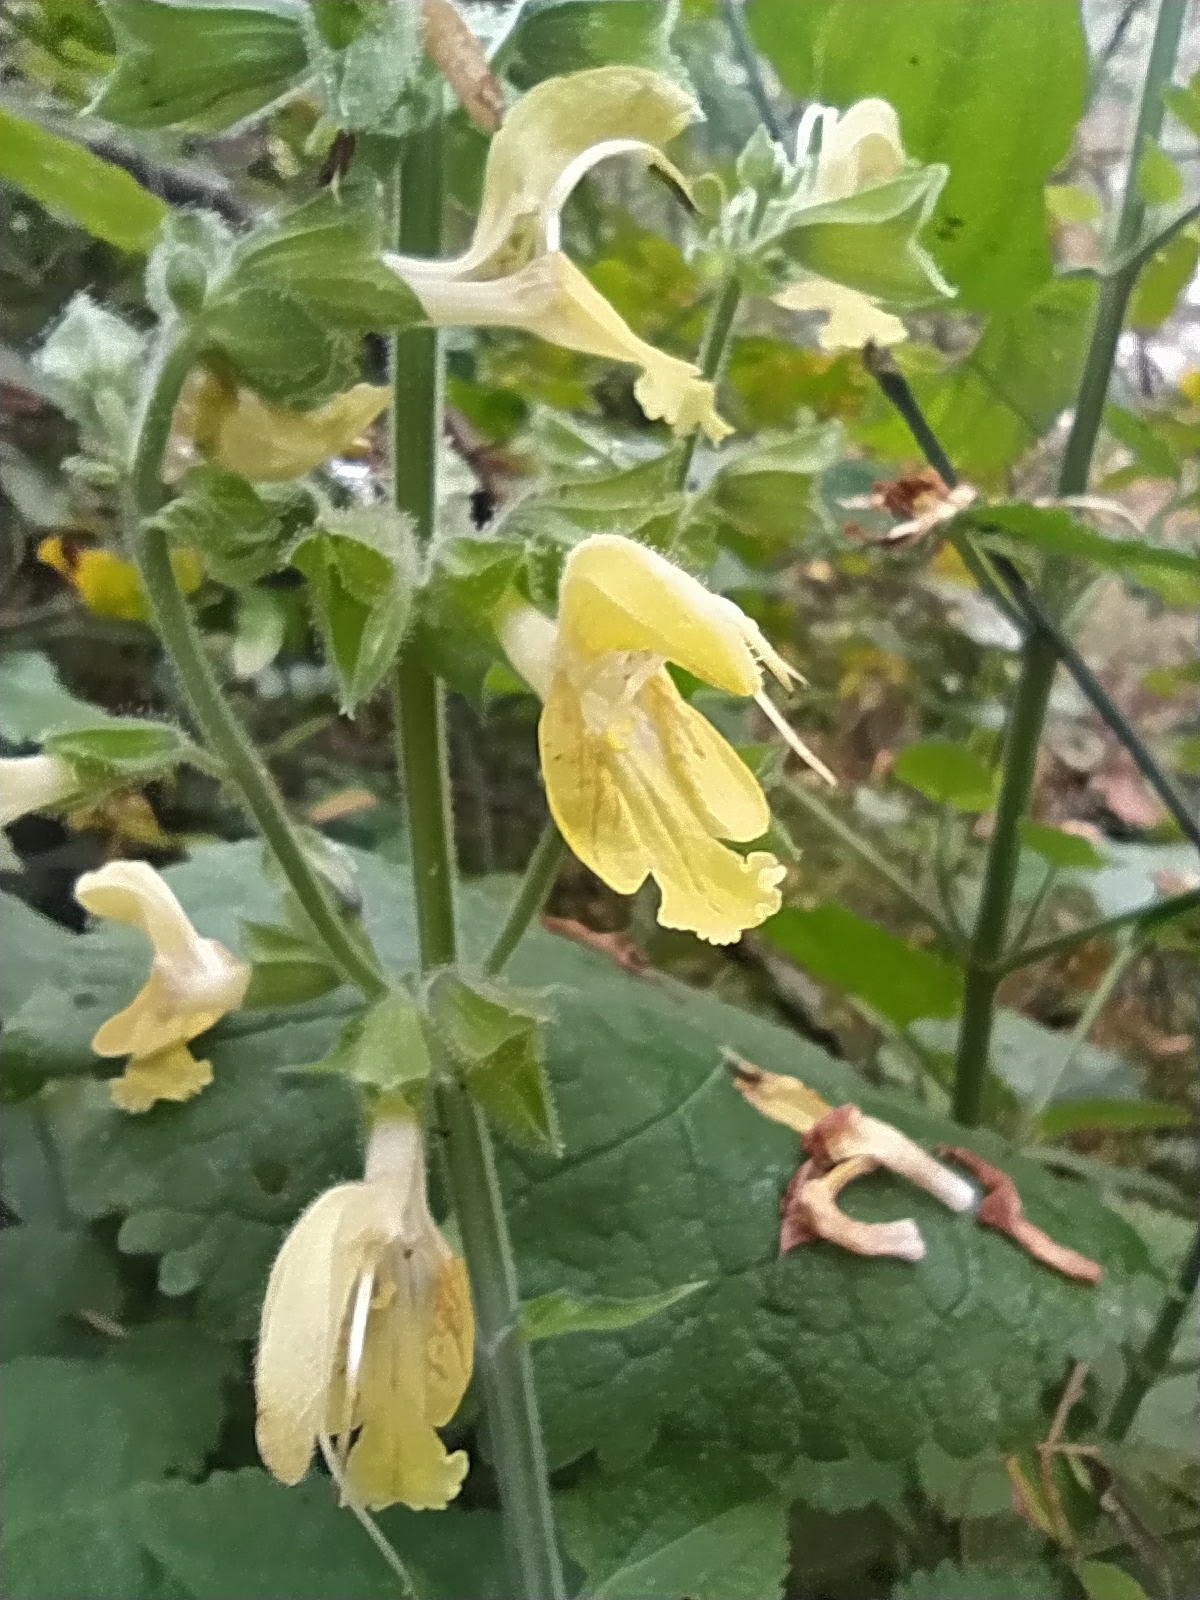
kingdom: Plantae
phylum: Tracheophyta
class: Magnoliopsida
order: Lamiales
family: Lamiaceae
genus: Salvia
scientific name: Salvia glutinosa
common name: Sticky clary
